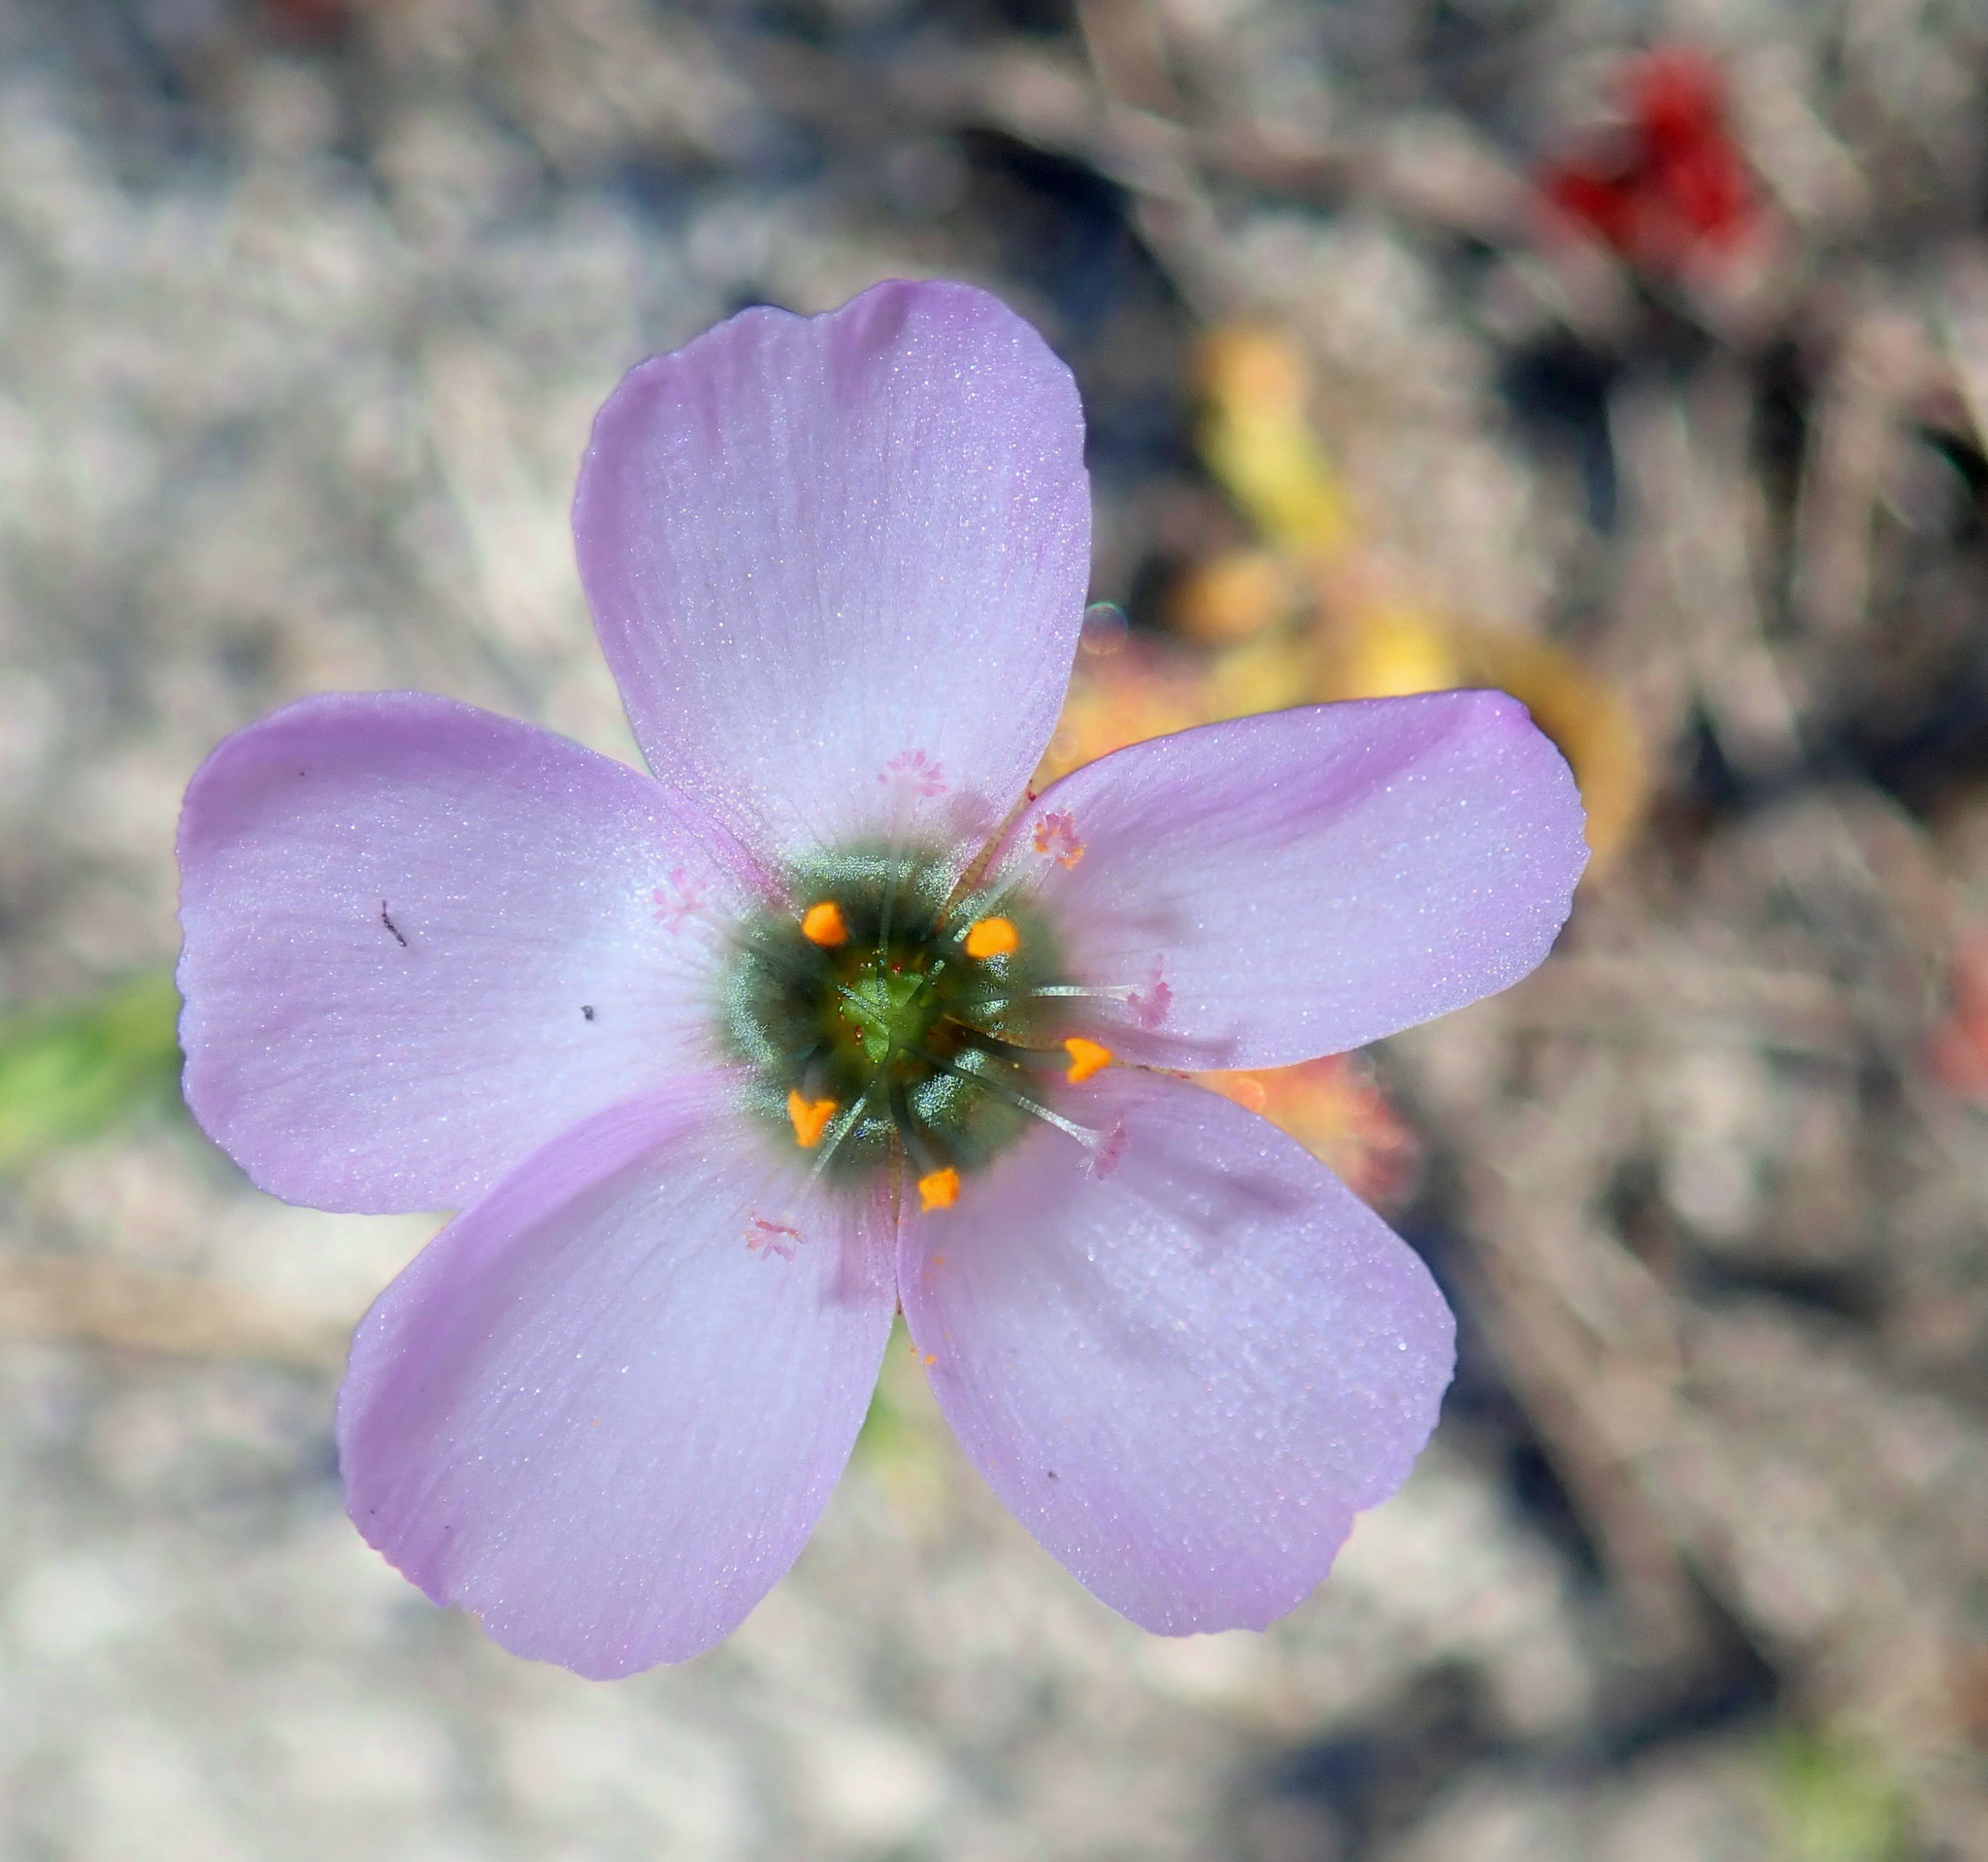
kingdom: Plantae
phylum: Tracheophyta
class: Magnoliopsida
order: Caryophyllales
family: Droseraceae
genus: Drosera
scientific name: Drosera cistiflora
